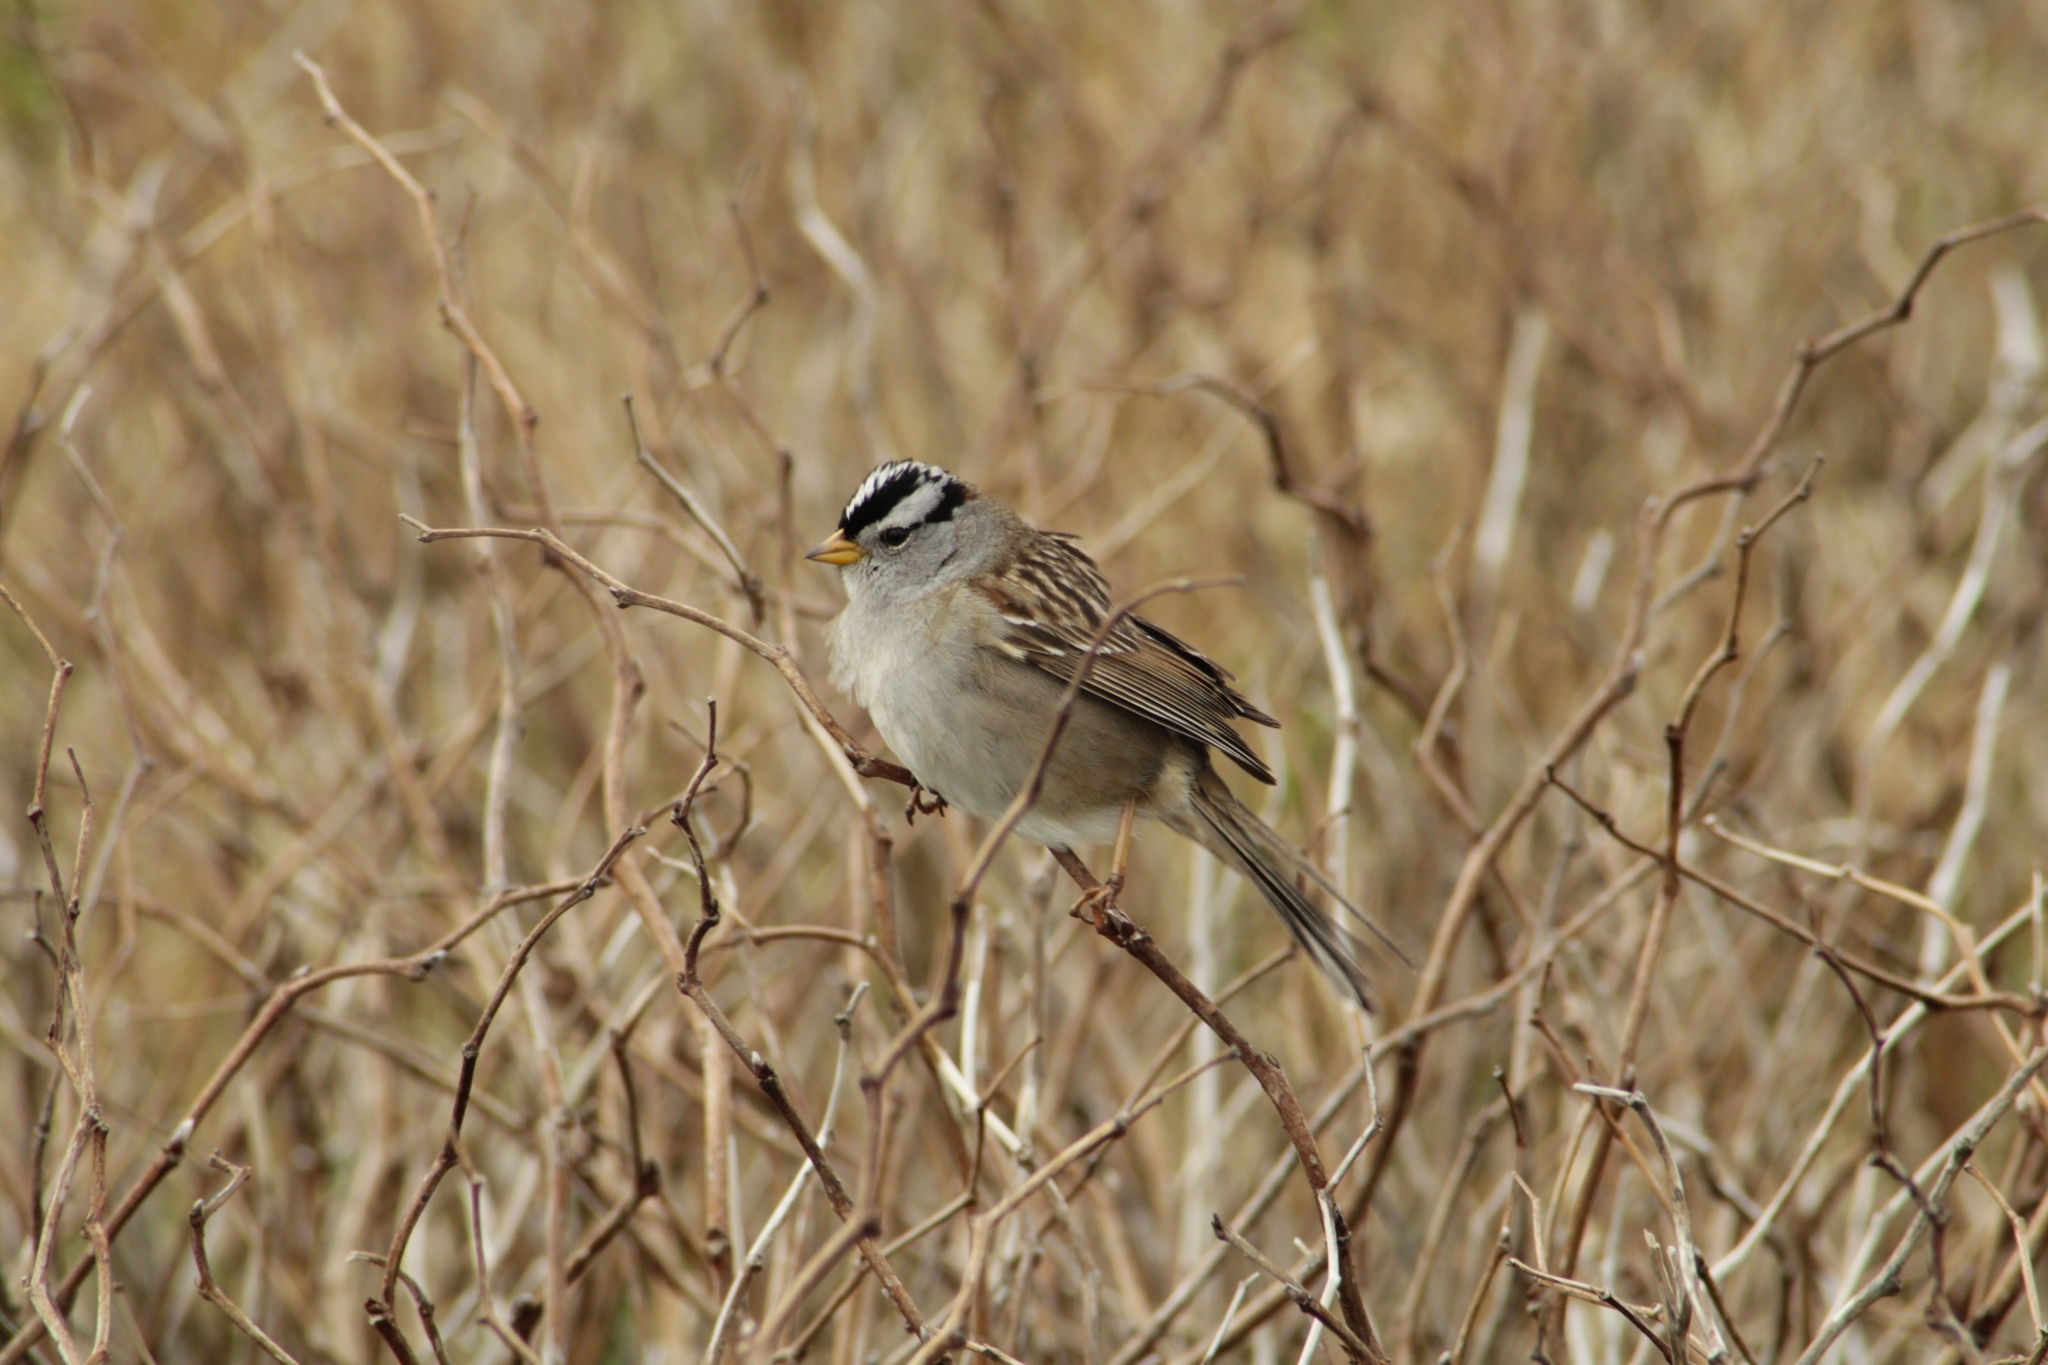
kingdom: Animalia
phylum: Chordata
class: Aves
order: Passeriformes
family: Passerellidae
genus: Zonotrichia
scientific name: Zonotrichia leucophrys
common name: White-crowned sparrow
